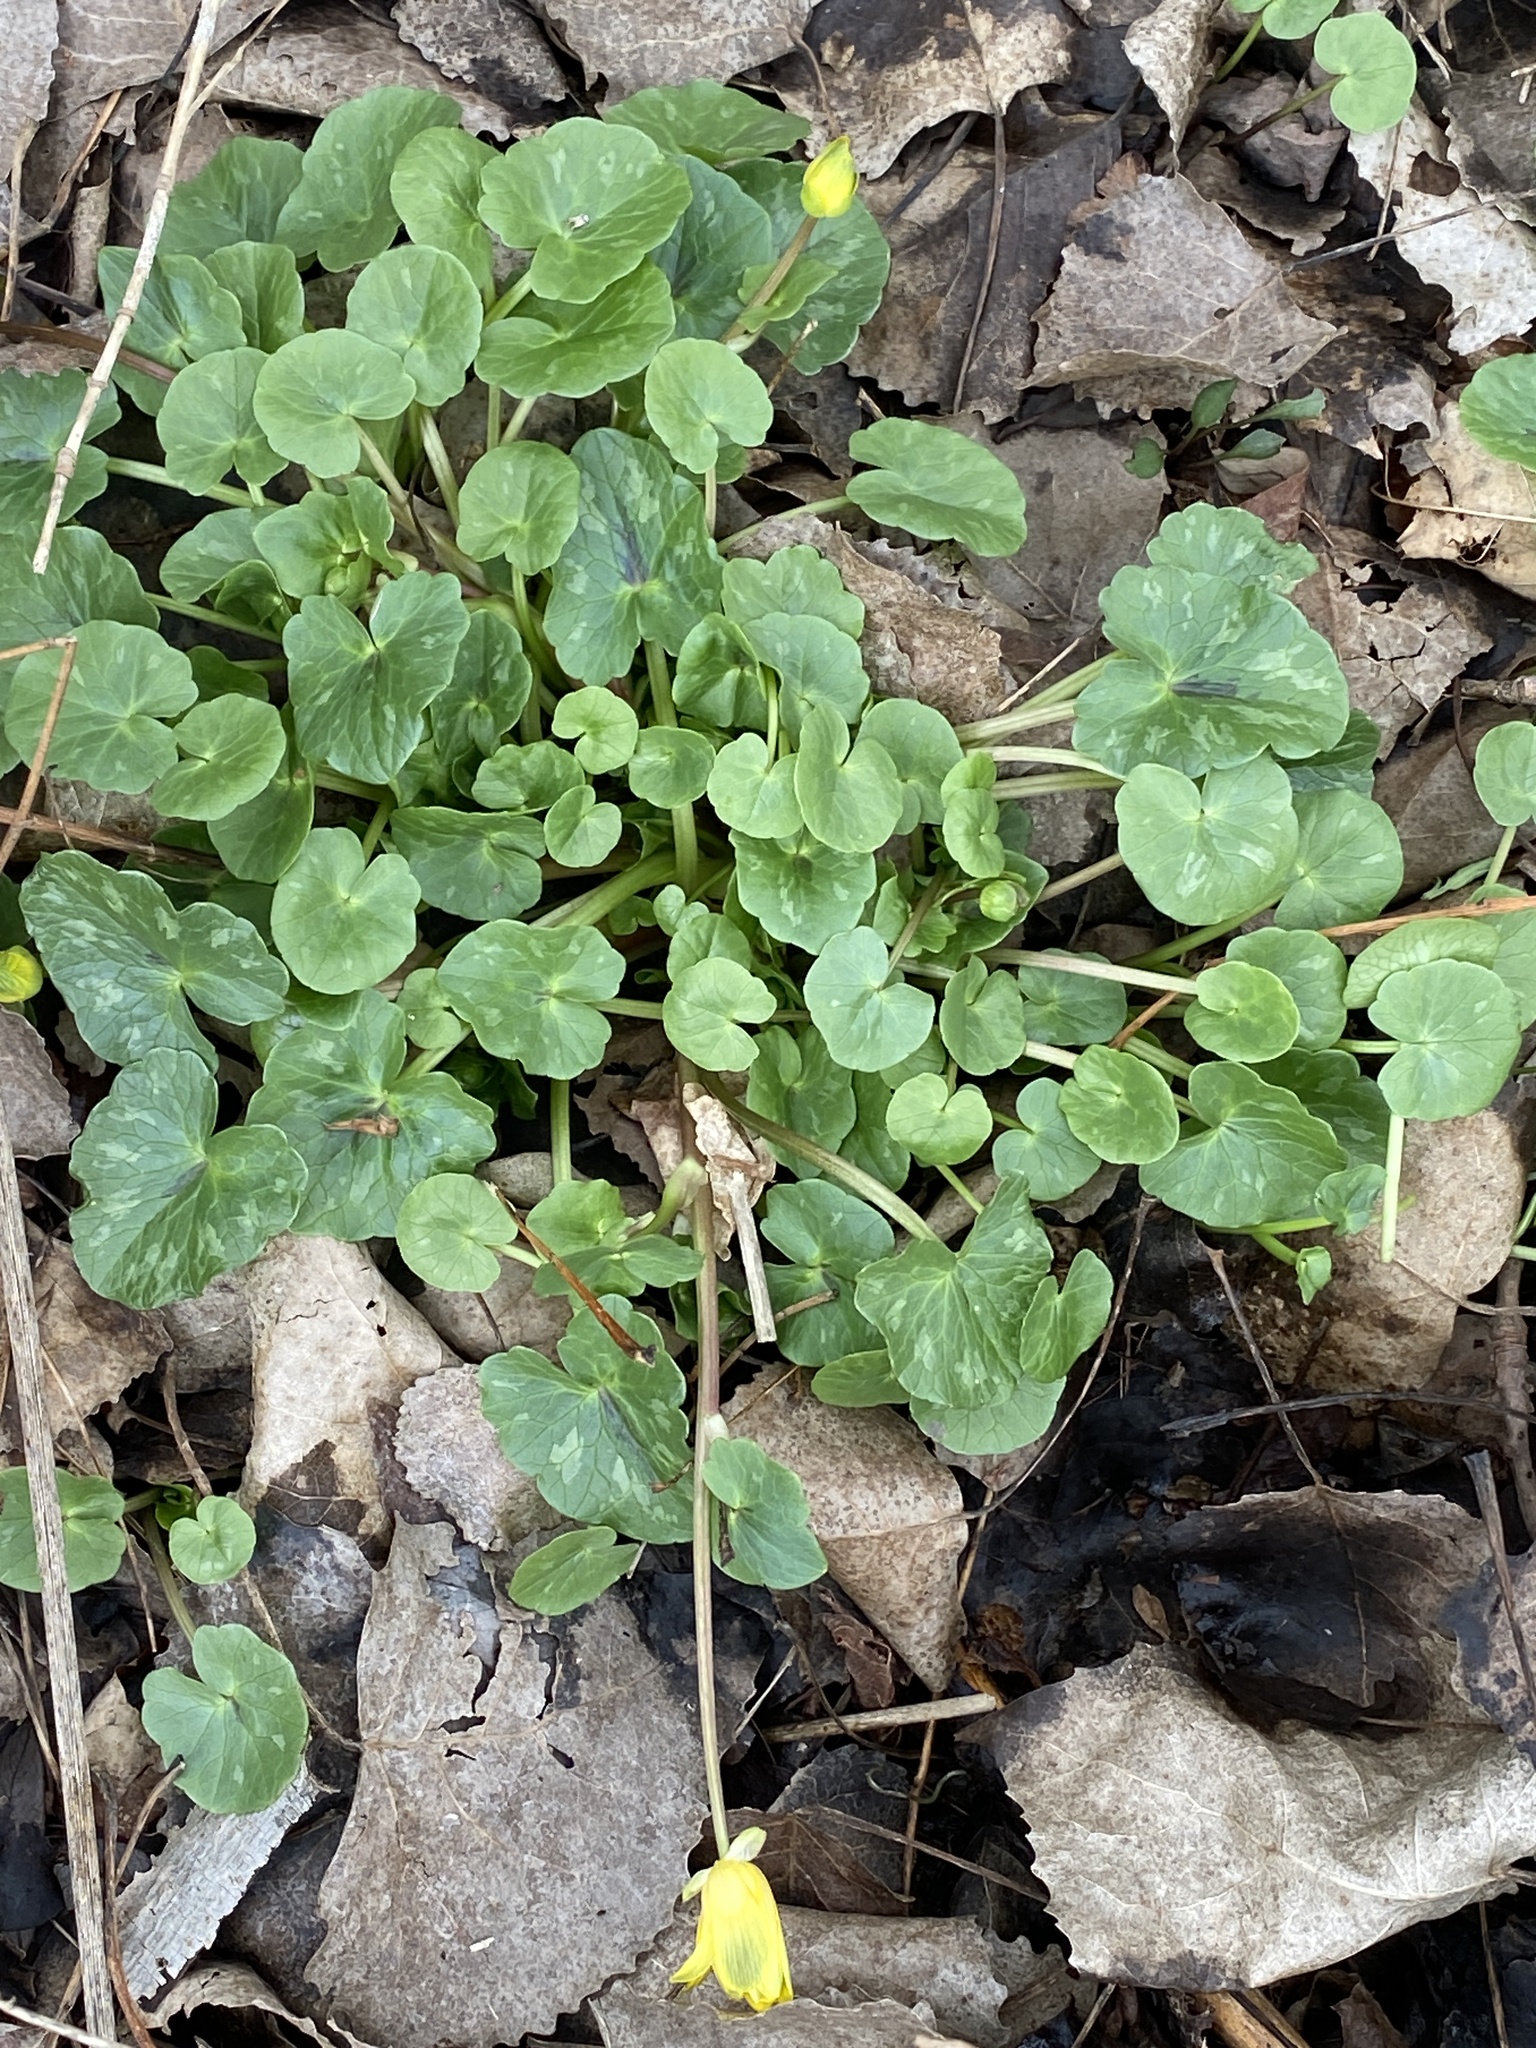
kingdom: Plantae
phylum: Tracheophyta
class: Magnoliopsida
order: Ranunculales
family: Ranunculaceae
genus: Ficaria
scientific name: Ficaria verna
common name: Lesser celandine
